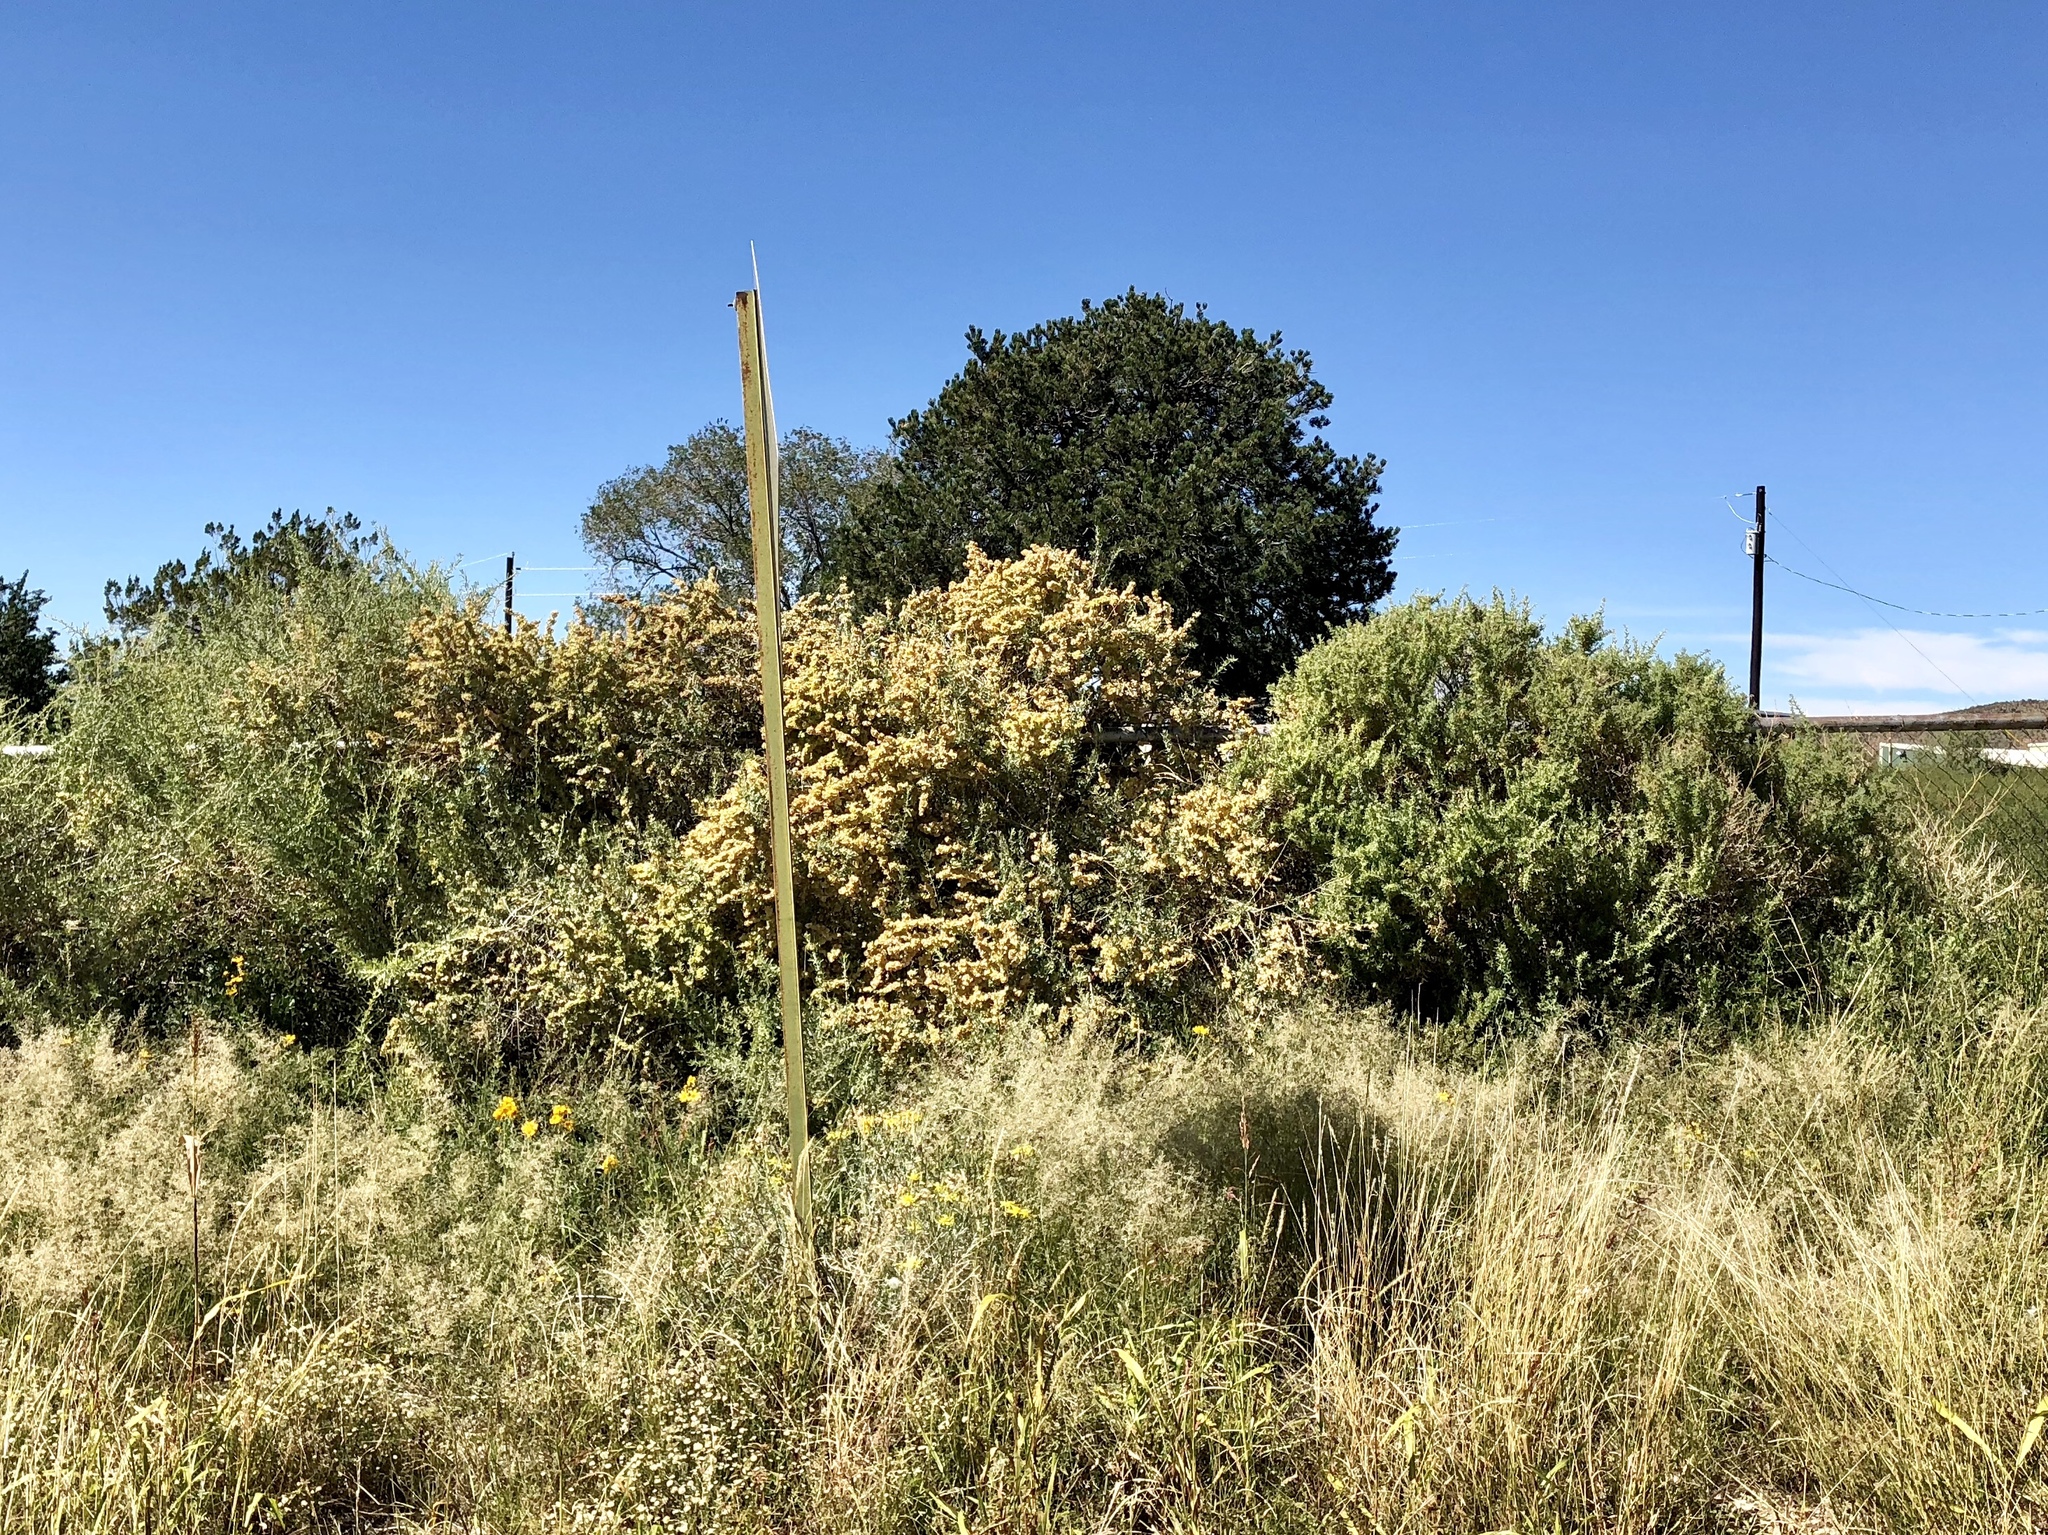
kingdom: Plantae
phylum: Tracheophyta
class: Magnoliopsida
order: Caryophyllales
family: Amaranthaceae
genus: Atriplex
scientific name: Atriplex canescens
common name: Four-wing saltbush
